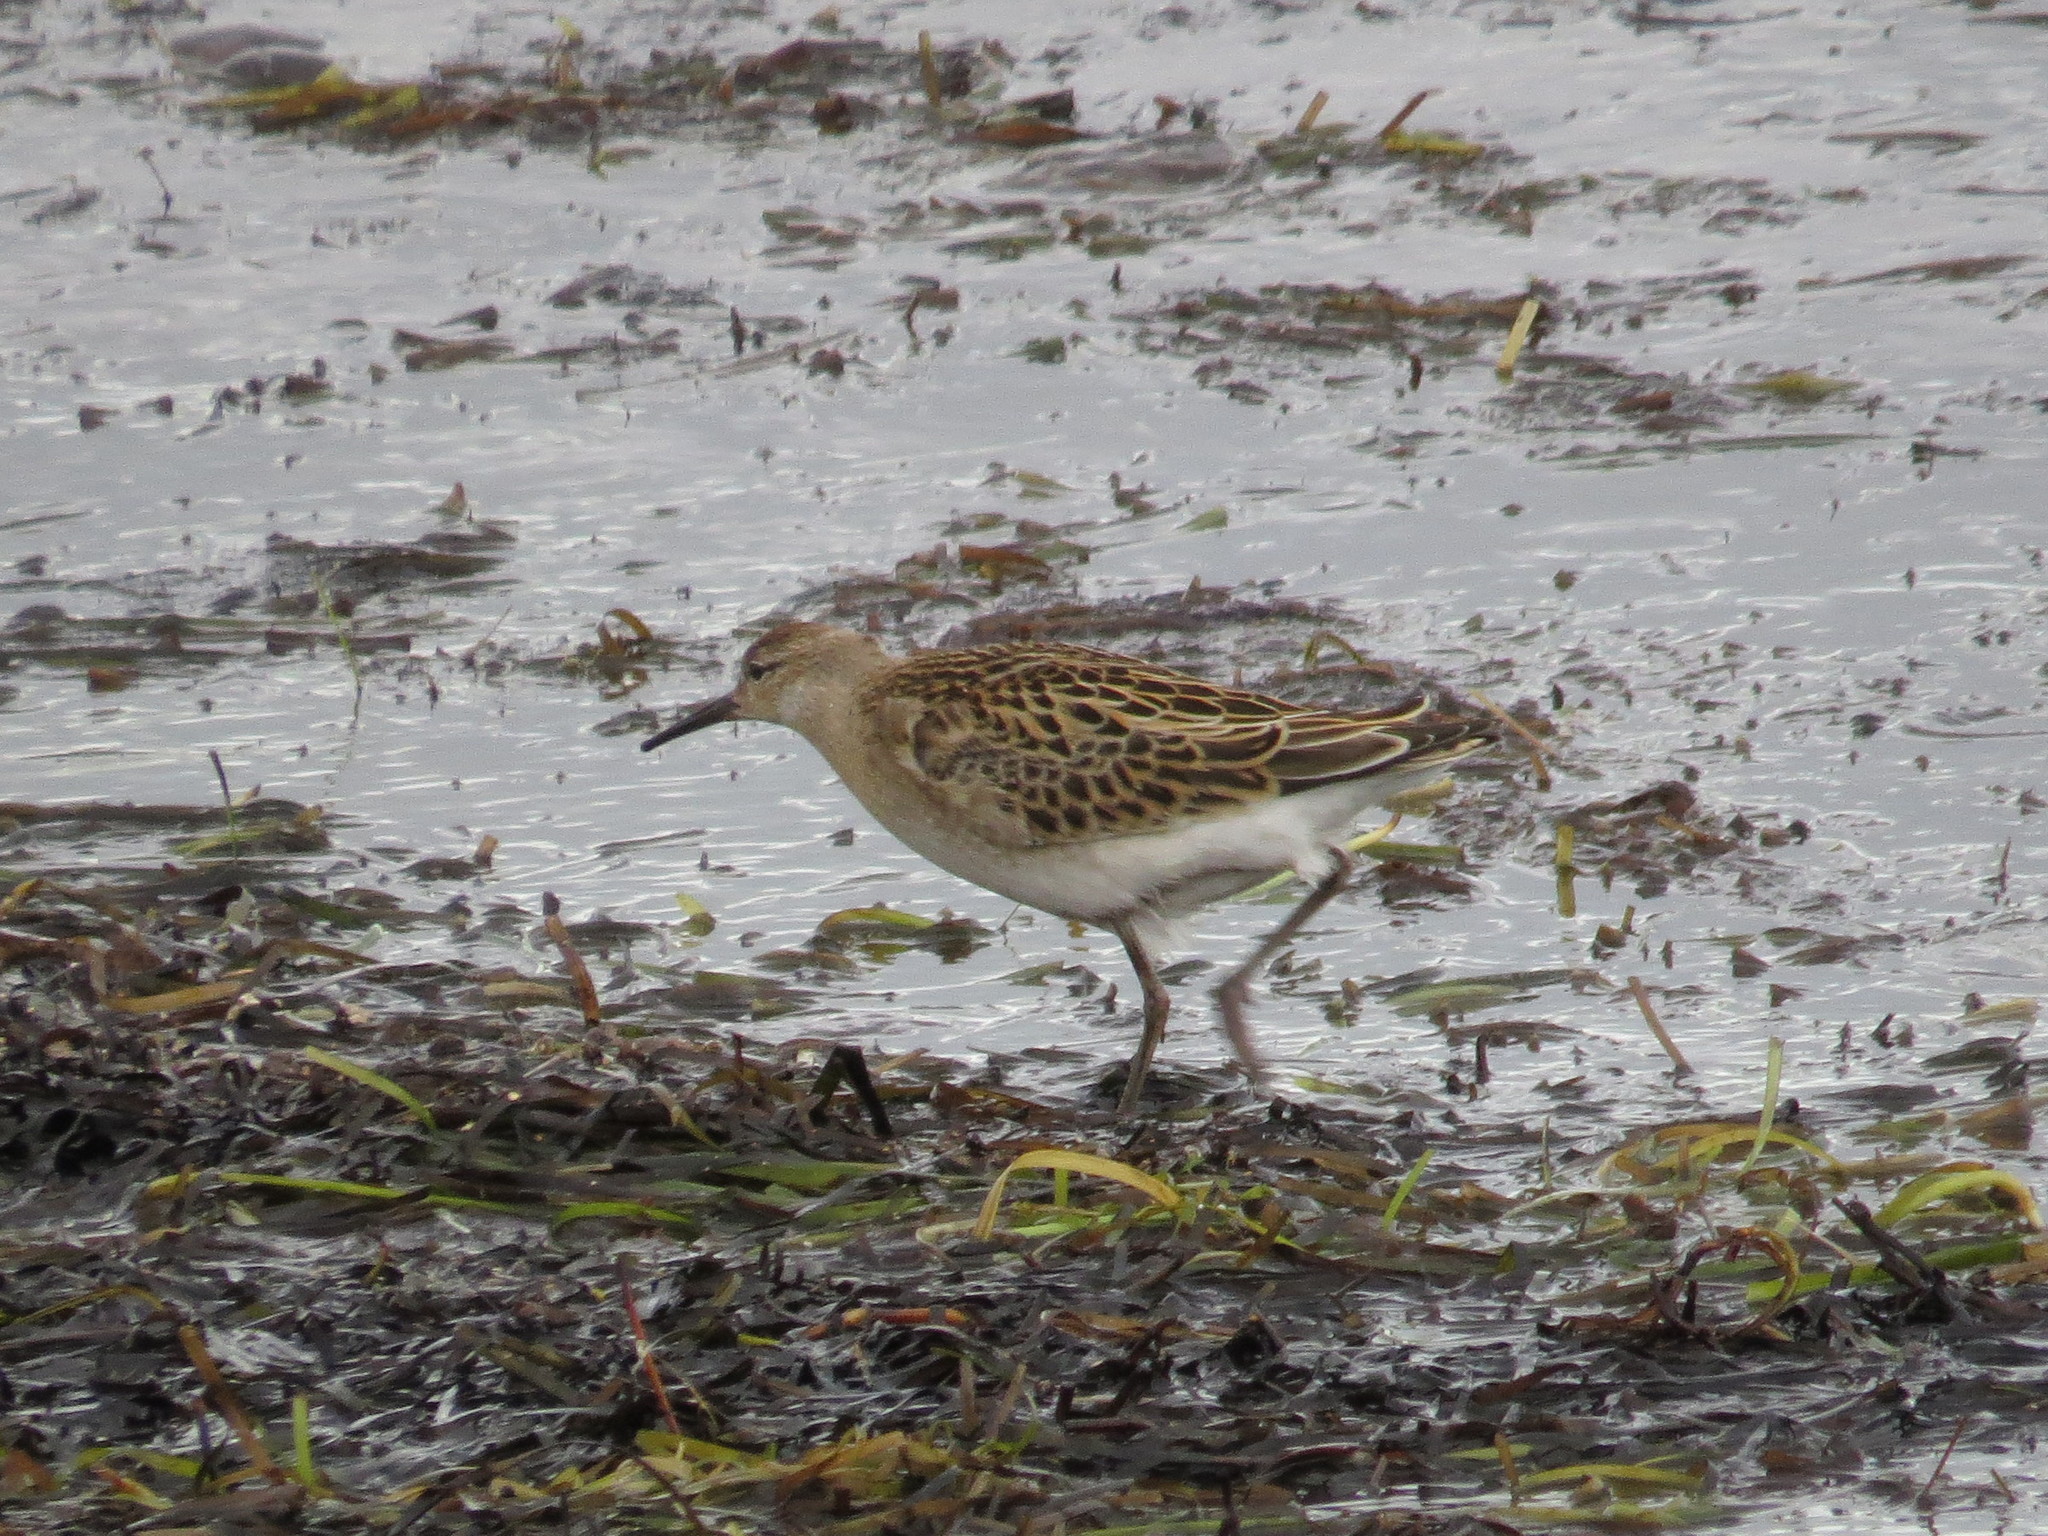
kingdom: Animalia
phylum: Chordata
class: Aves
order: Charadriiformes
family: Scolopacidae
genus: Calidris
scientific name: Calidris pugnax
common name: Ruff
